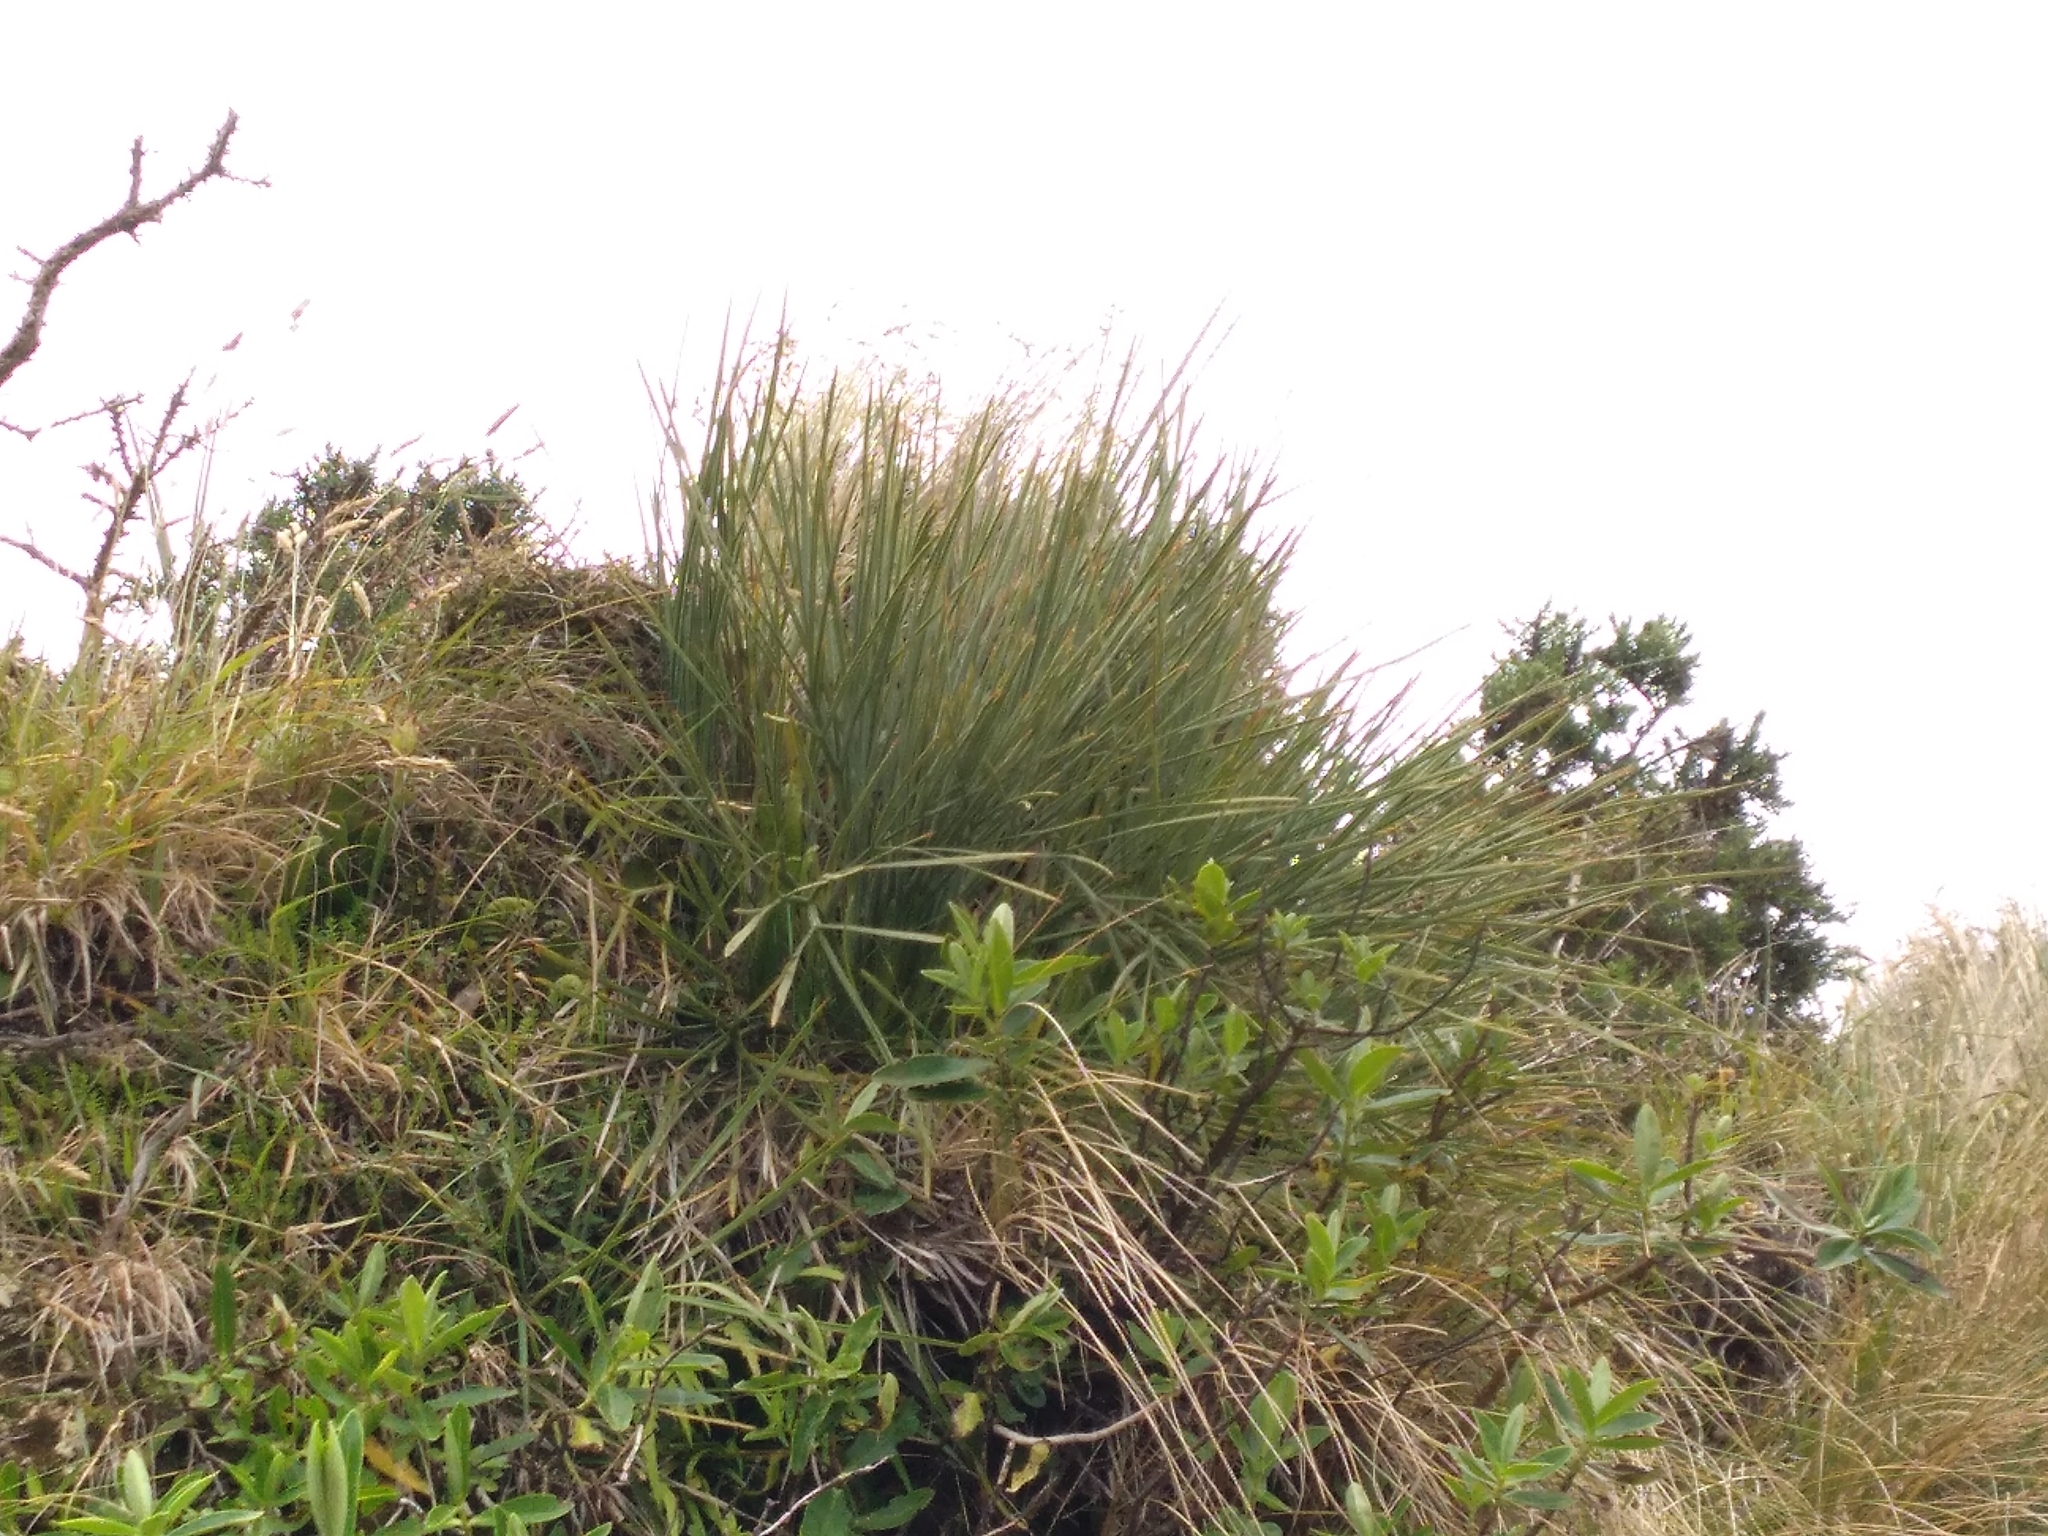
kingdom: Plantae
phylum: Tracheophyta
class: Magnoliopsida
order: Apiales
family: Apiaceae
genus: Aciphylla
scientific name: Aciphylla squarrosa
